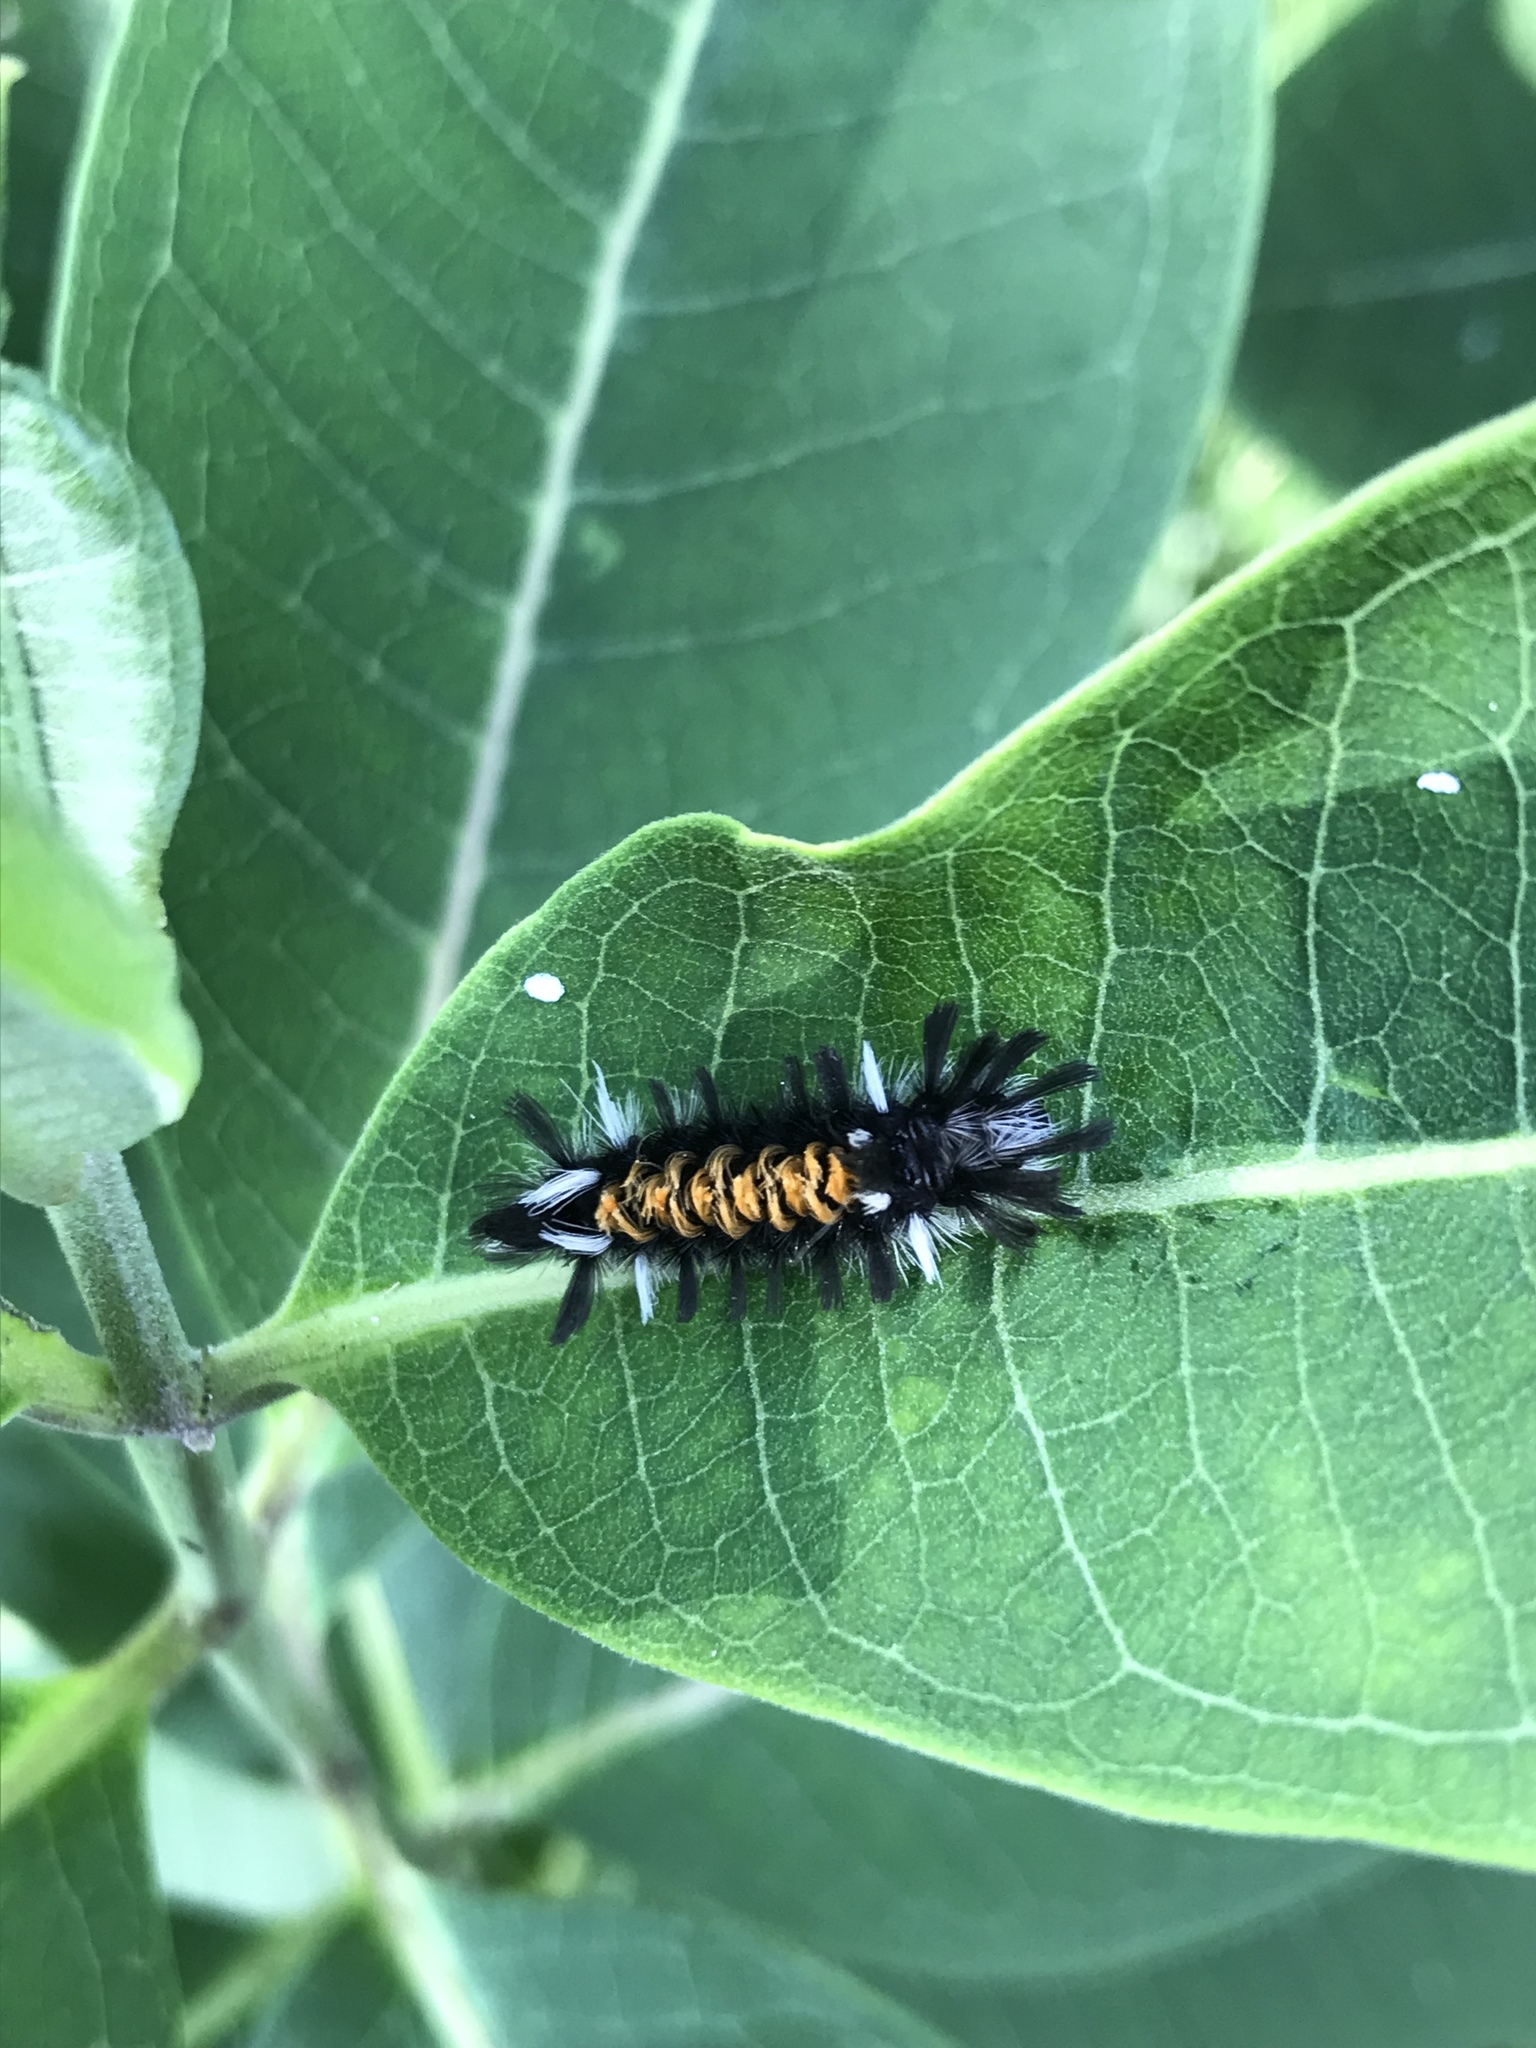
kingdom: Animalia
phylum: Arthropoda
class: Insecta
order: Lepidoptera
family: Erebidae
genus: Euchaetes
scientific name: Euchaetes egle
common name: Milkweed tussock moth
